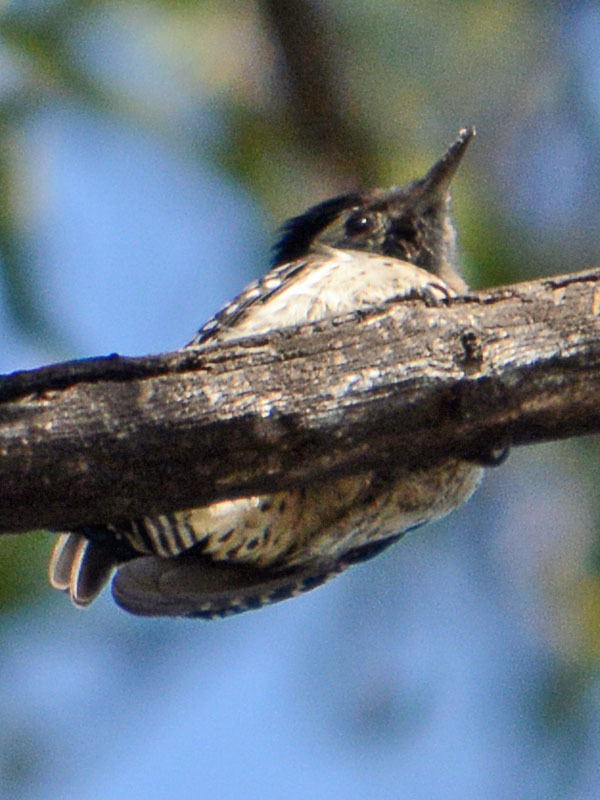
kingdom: Animalia
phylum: Chordata
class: Aves
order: Piciformes
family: Picidae
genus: Dryobates
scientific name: Dryobates scalaris
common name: Ladder-backed woodpecker
